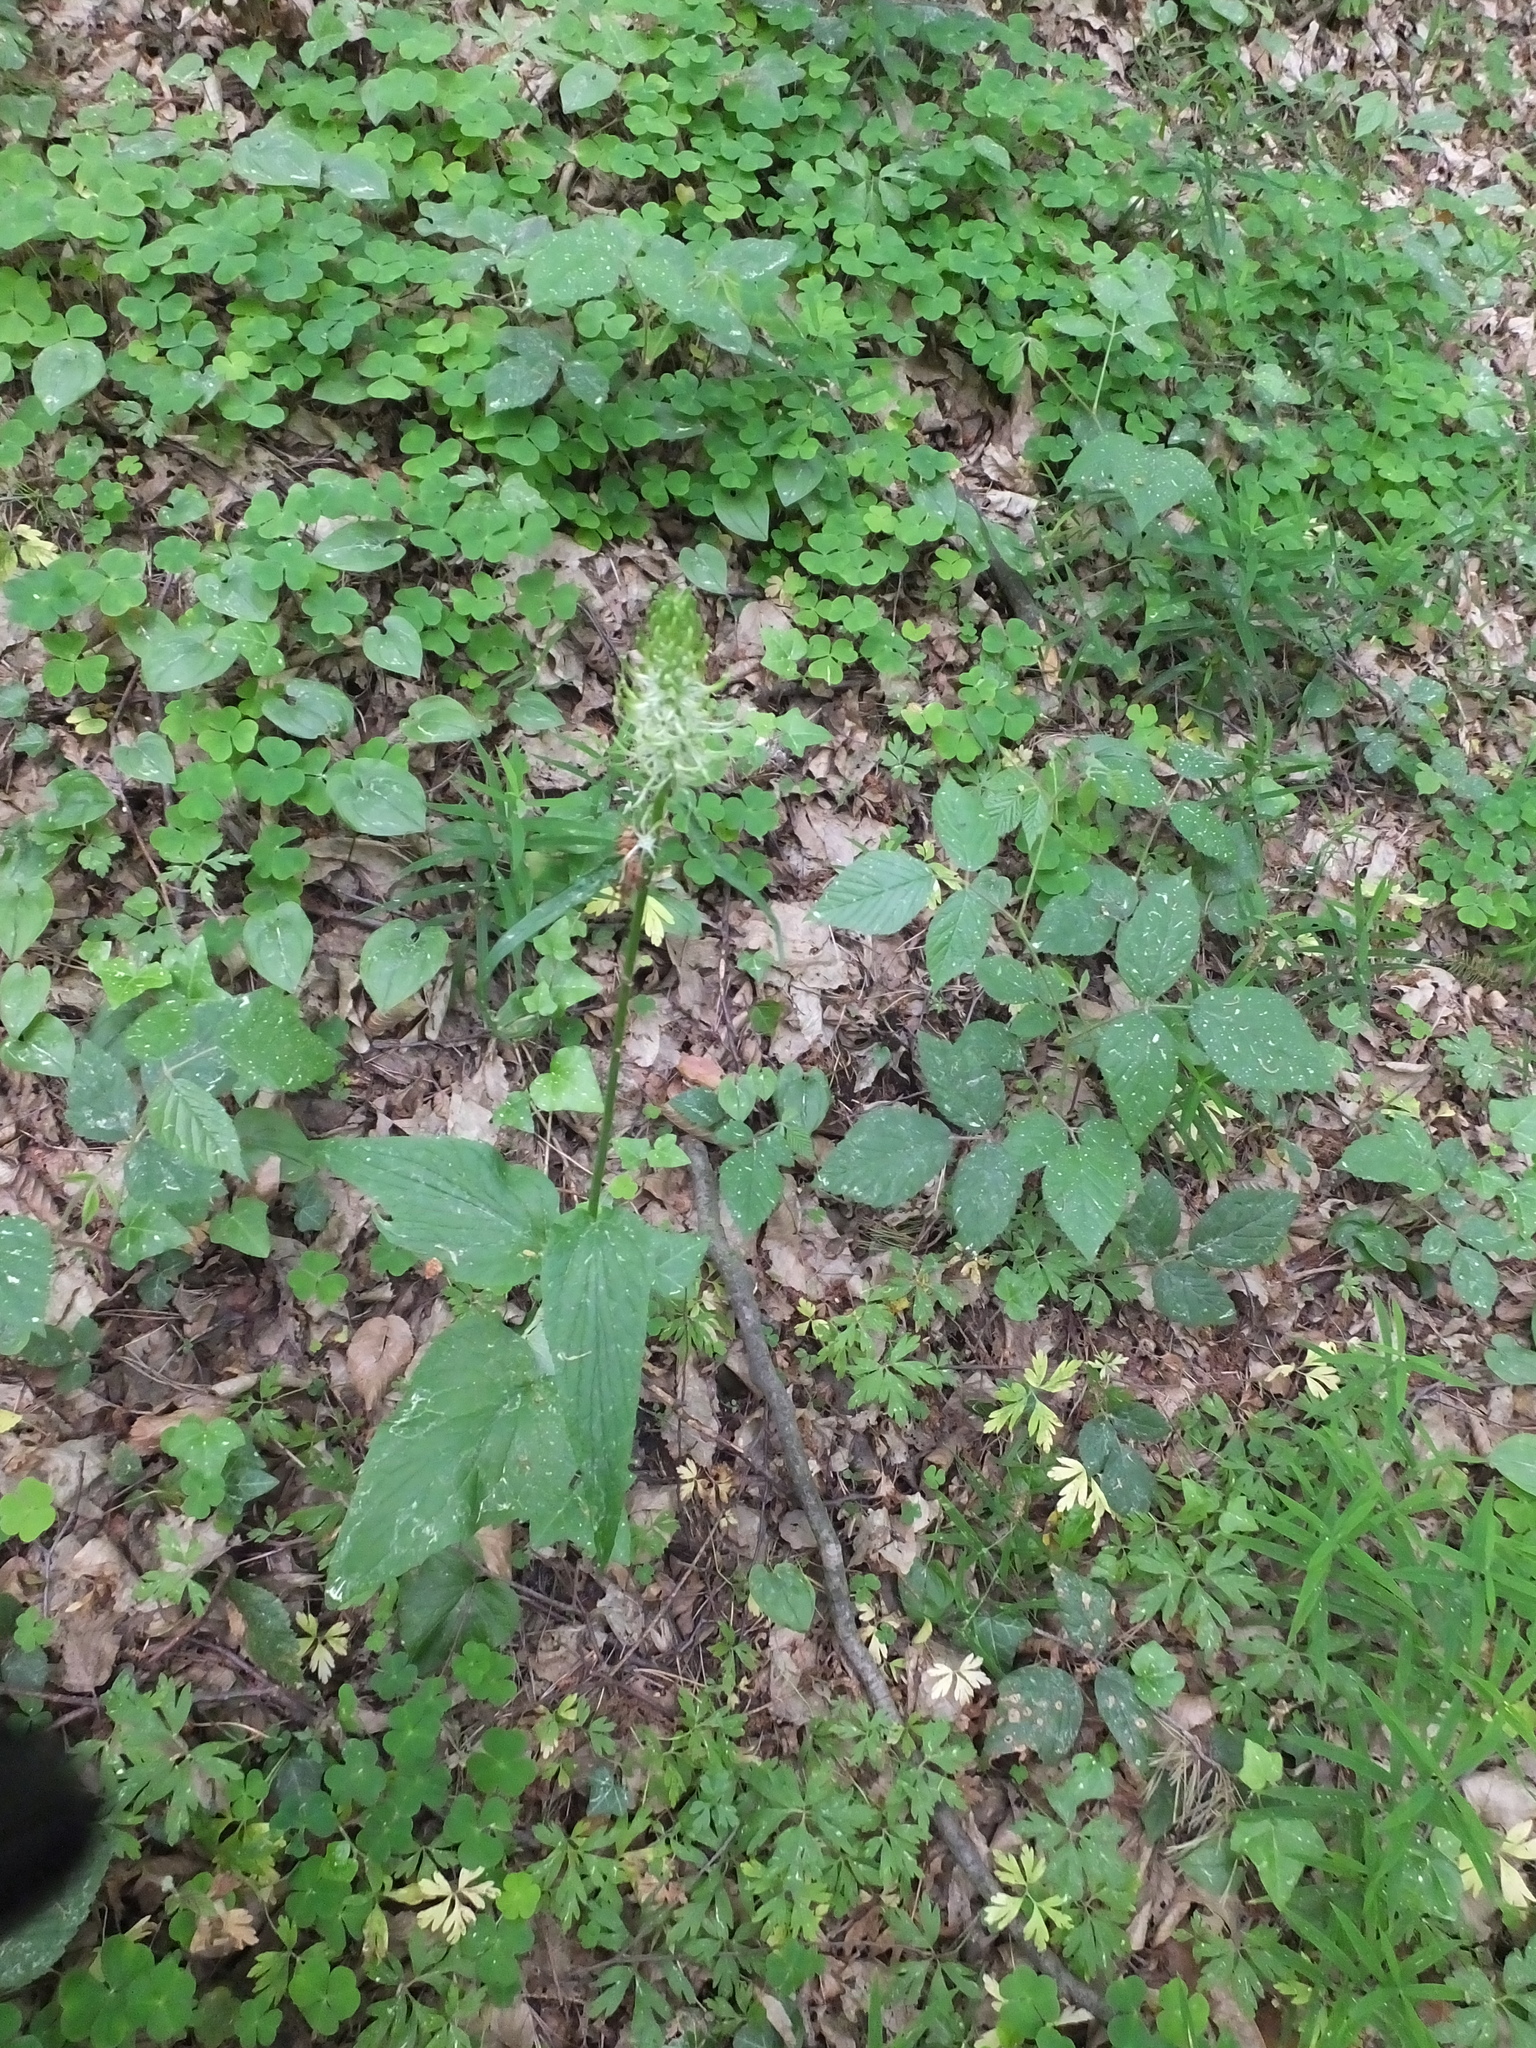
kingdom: Plantae
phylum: Tracheophyta
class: Magnoliopsida
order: Asterales
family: Campanulaceae
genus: Phyteuma
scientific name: Phyteuma spicatum
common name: Spiked rampion
